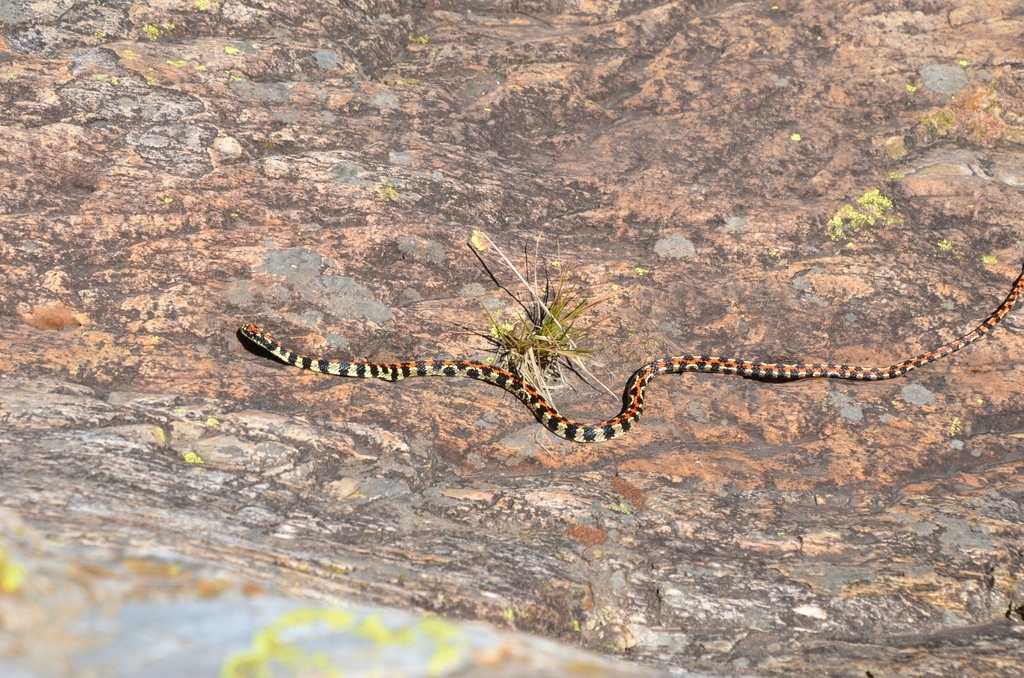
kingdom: Animalia
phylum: Chordata
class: Squamata
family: Colubridae
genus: Lygophis
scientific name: Lygophis elegantissimus
